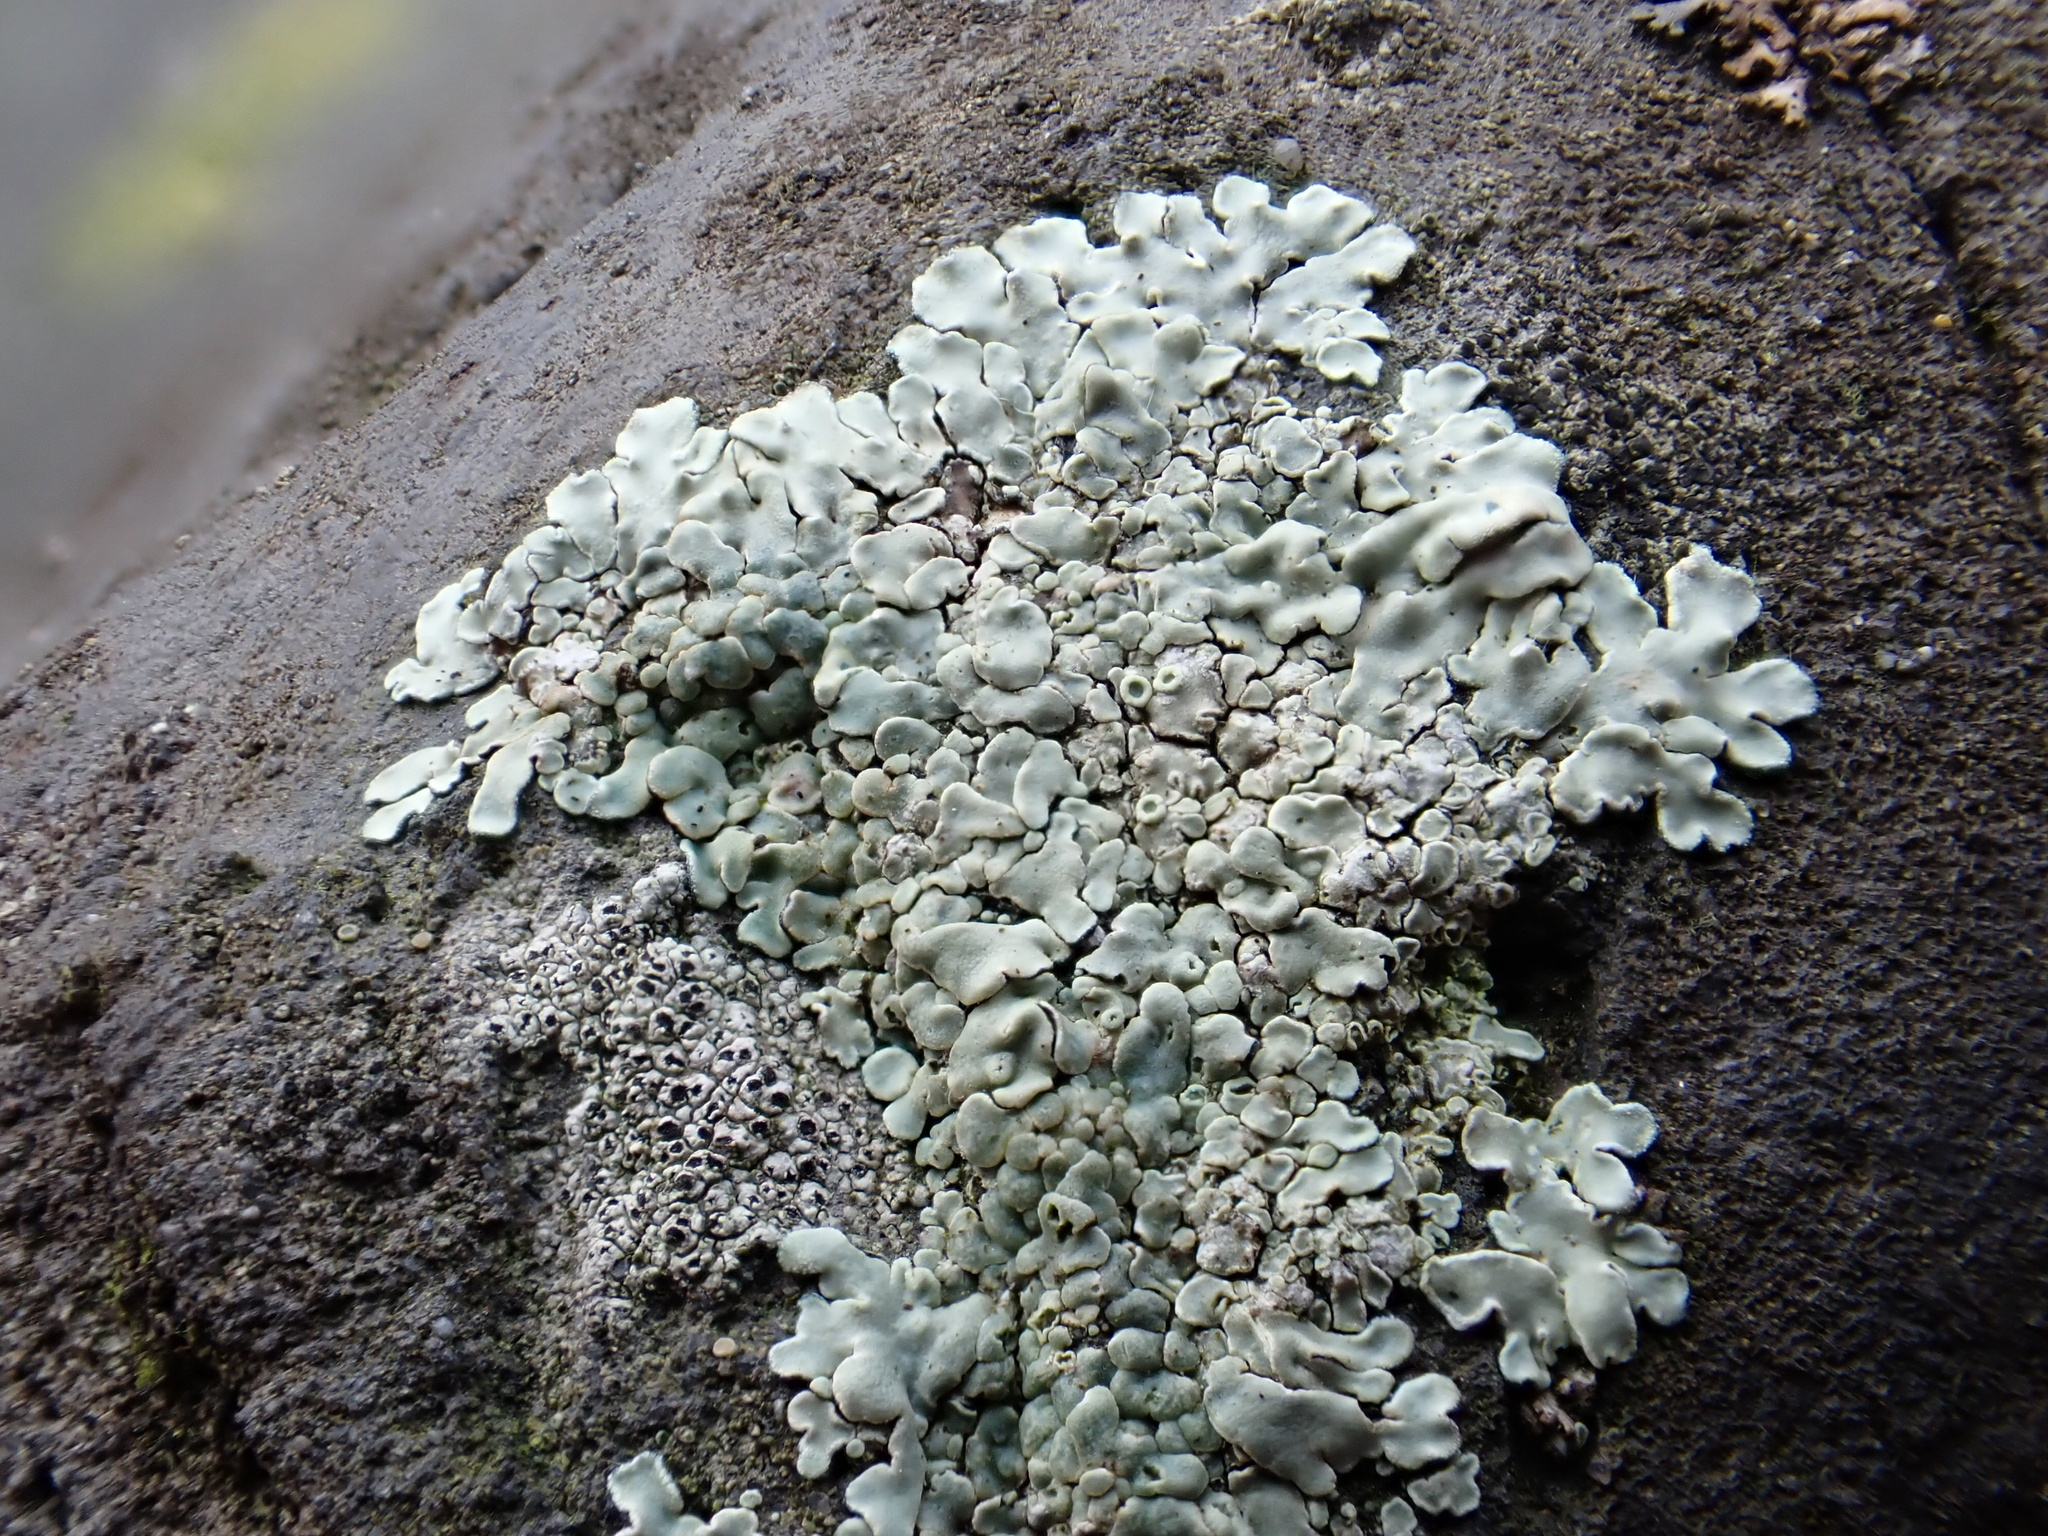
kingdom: Fungi
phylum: Ascomycota
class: Lecanoromycetes
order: Lecanorales
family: Lecanoraceae
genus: Protoparmeliopsis
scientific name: Protoparmeliopsis muralis
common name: Stonewall rim lichen
